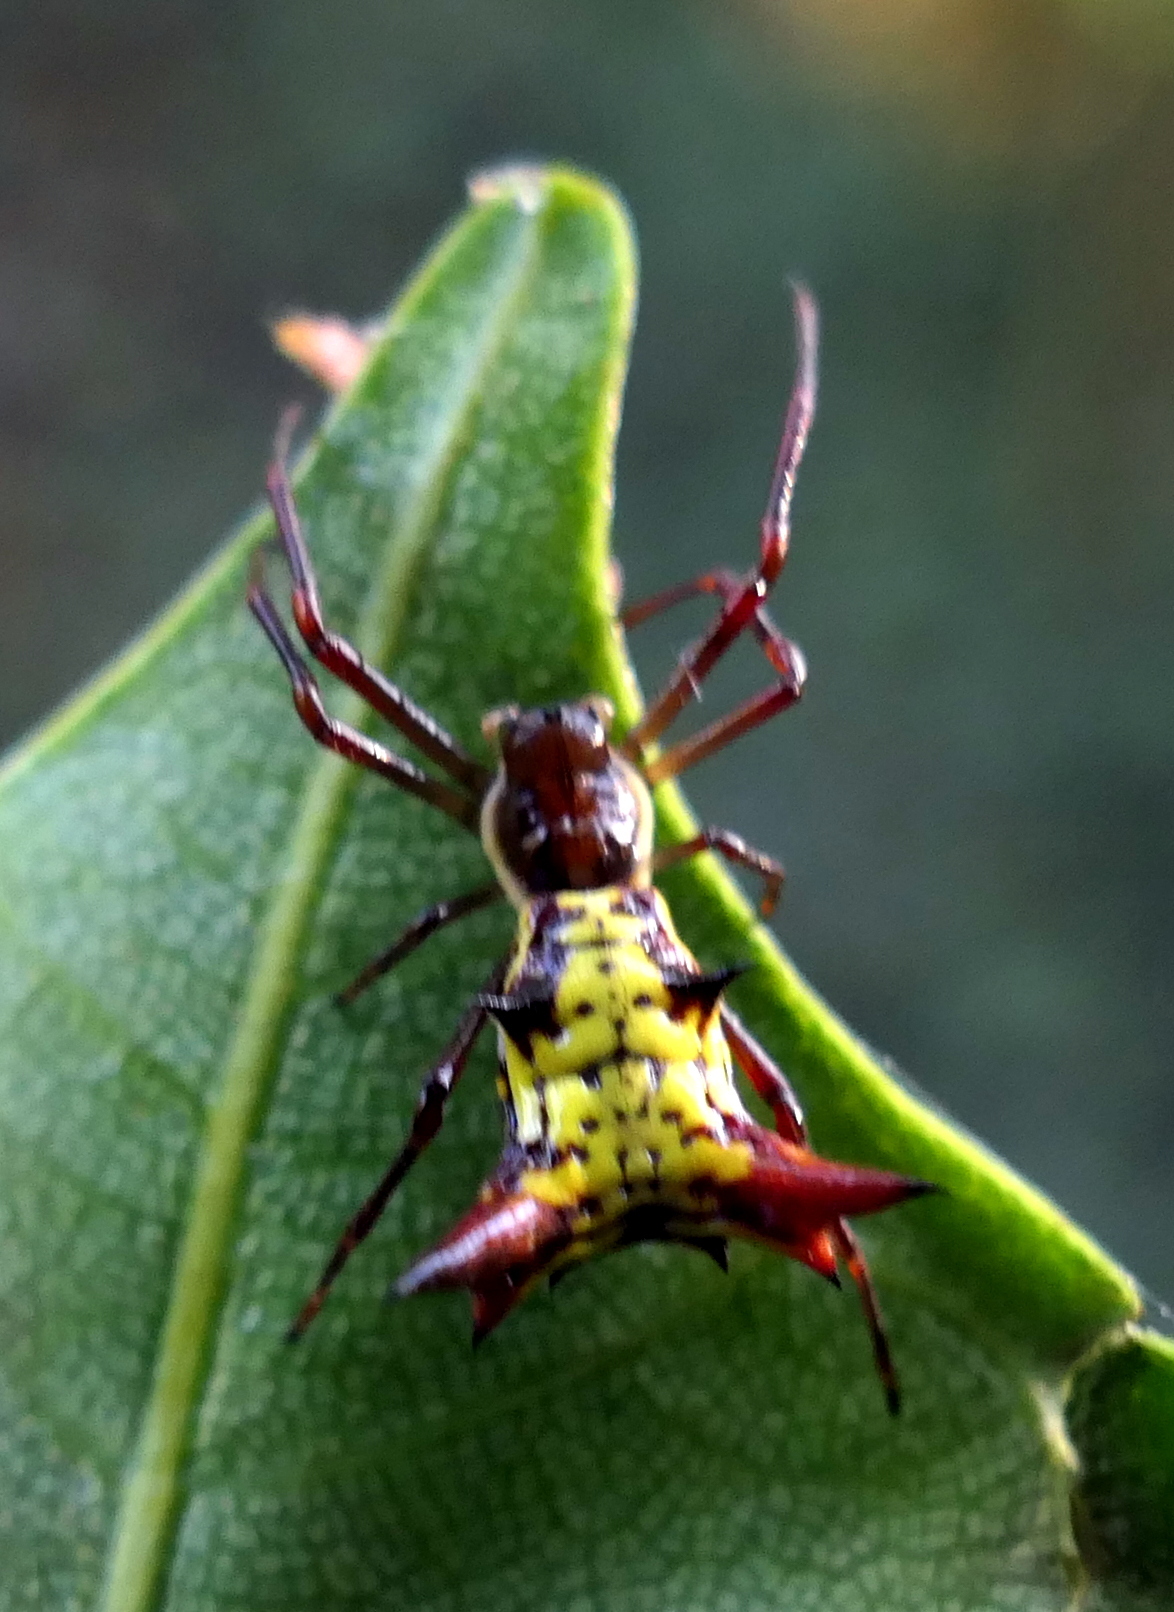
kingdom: Animalia
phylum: Arthropoda
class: Arachnida
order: Araneae
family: Araneidae
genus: Micrathena
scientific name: Micrathena fissispina
